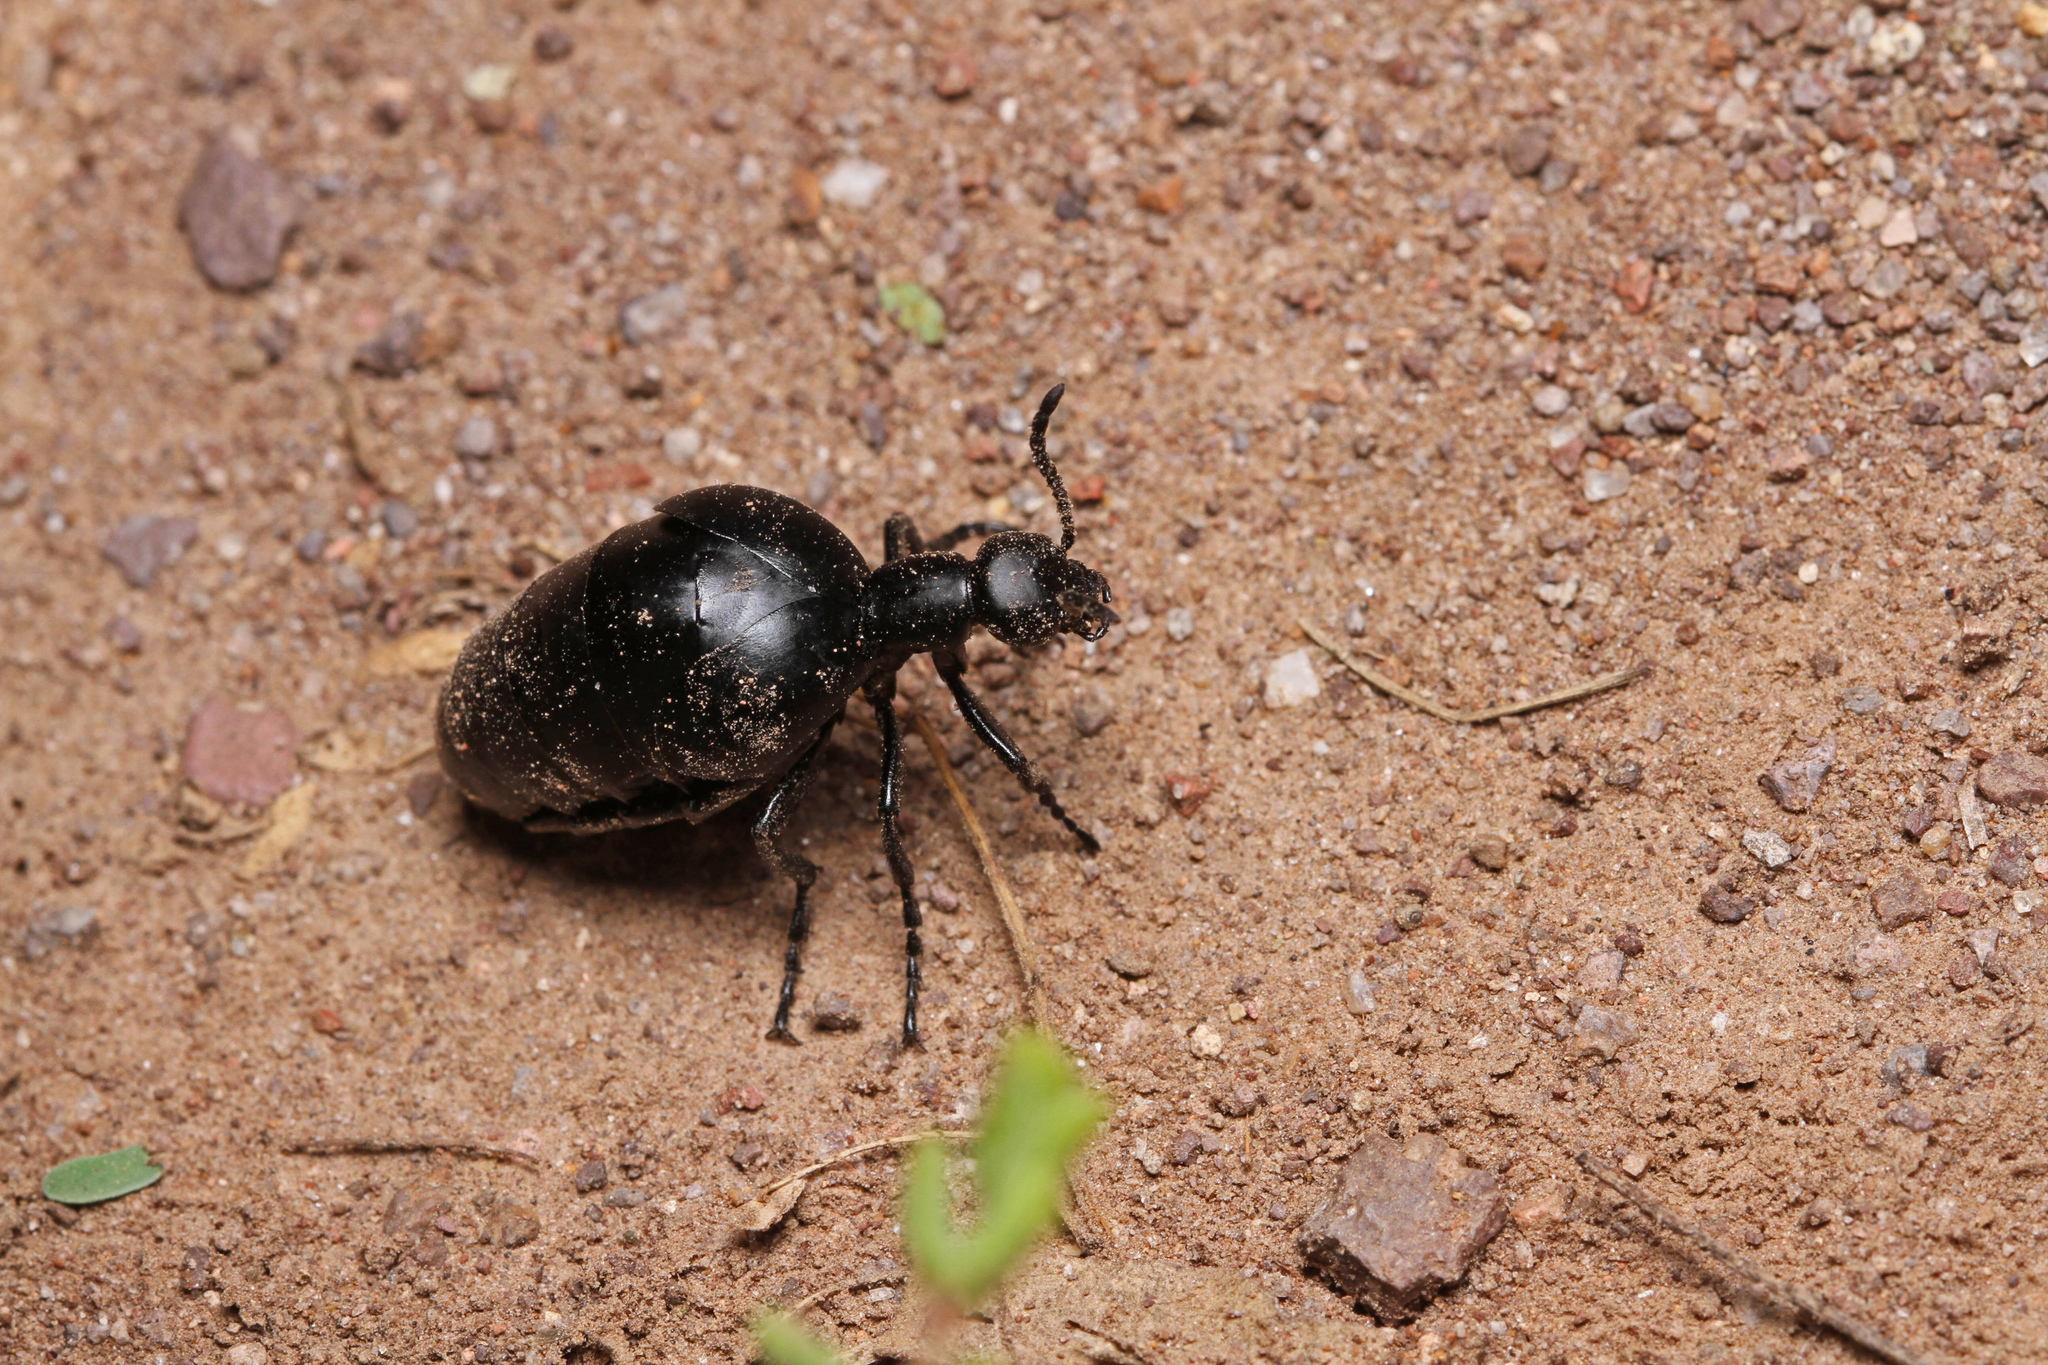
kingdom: Animalia
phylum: Arthropoda
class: Insecta
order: Coleoptera
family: Meloidae
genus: Meloe
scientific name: Meloe laevis
